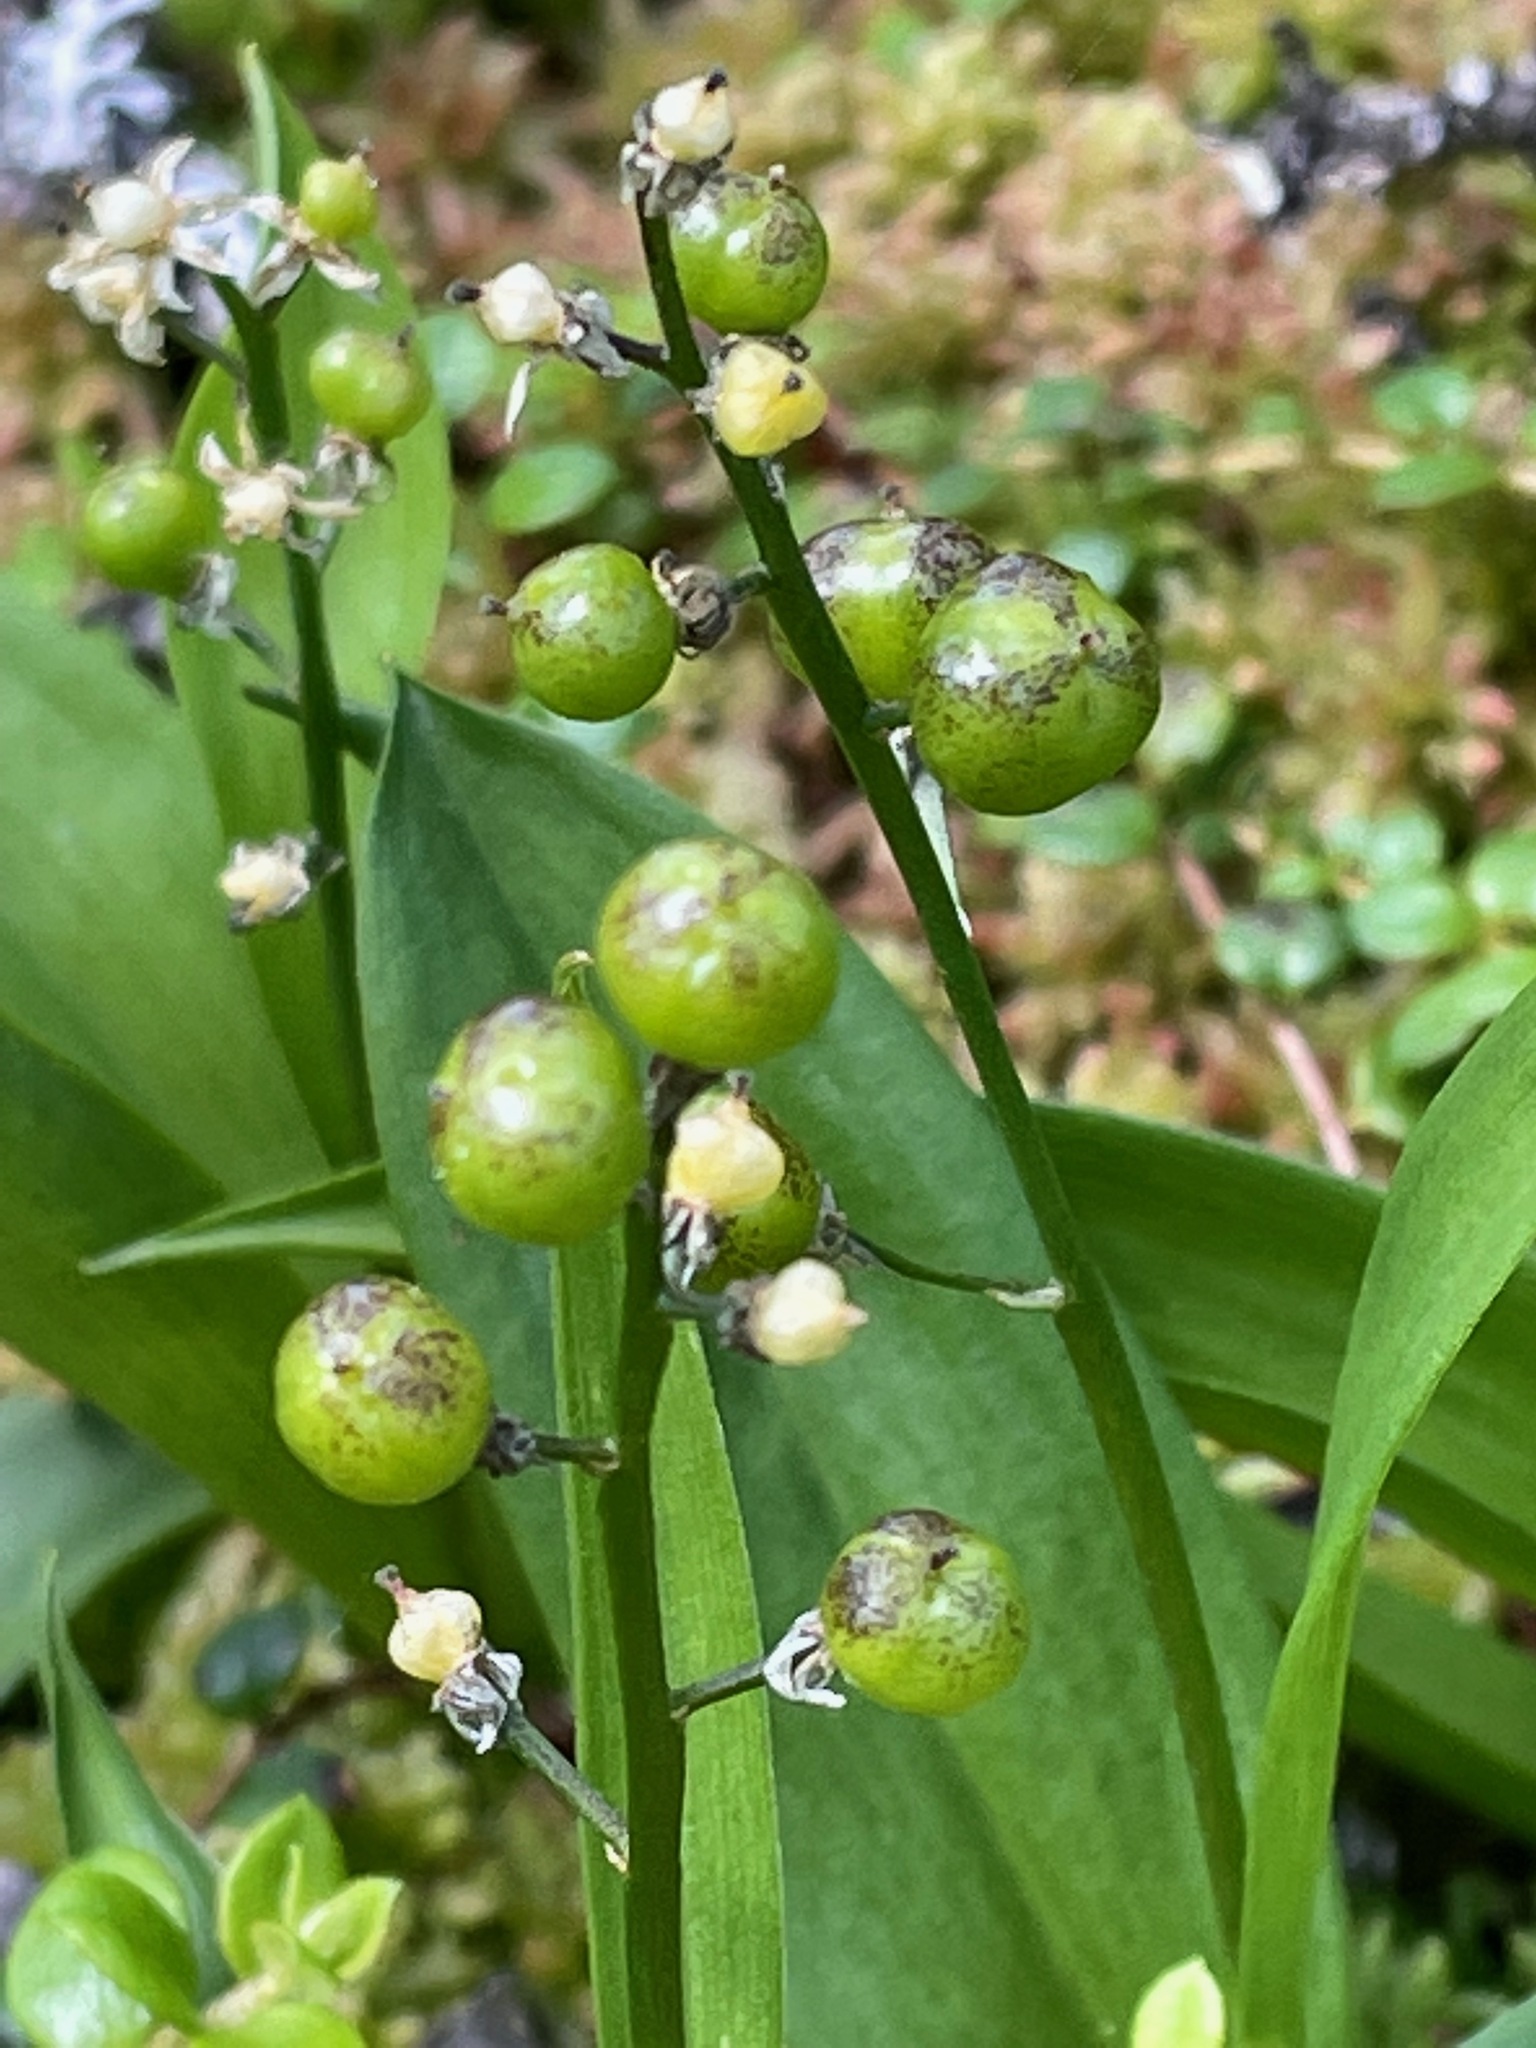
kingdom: Plantae
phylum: Tracheophyta
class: Liliopsida
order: Asparagales
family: Asparagaceae
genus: Maianthemum
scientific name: Maianthemum trifolium
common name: Swamp false solomon's seal
